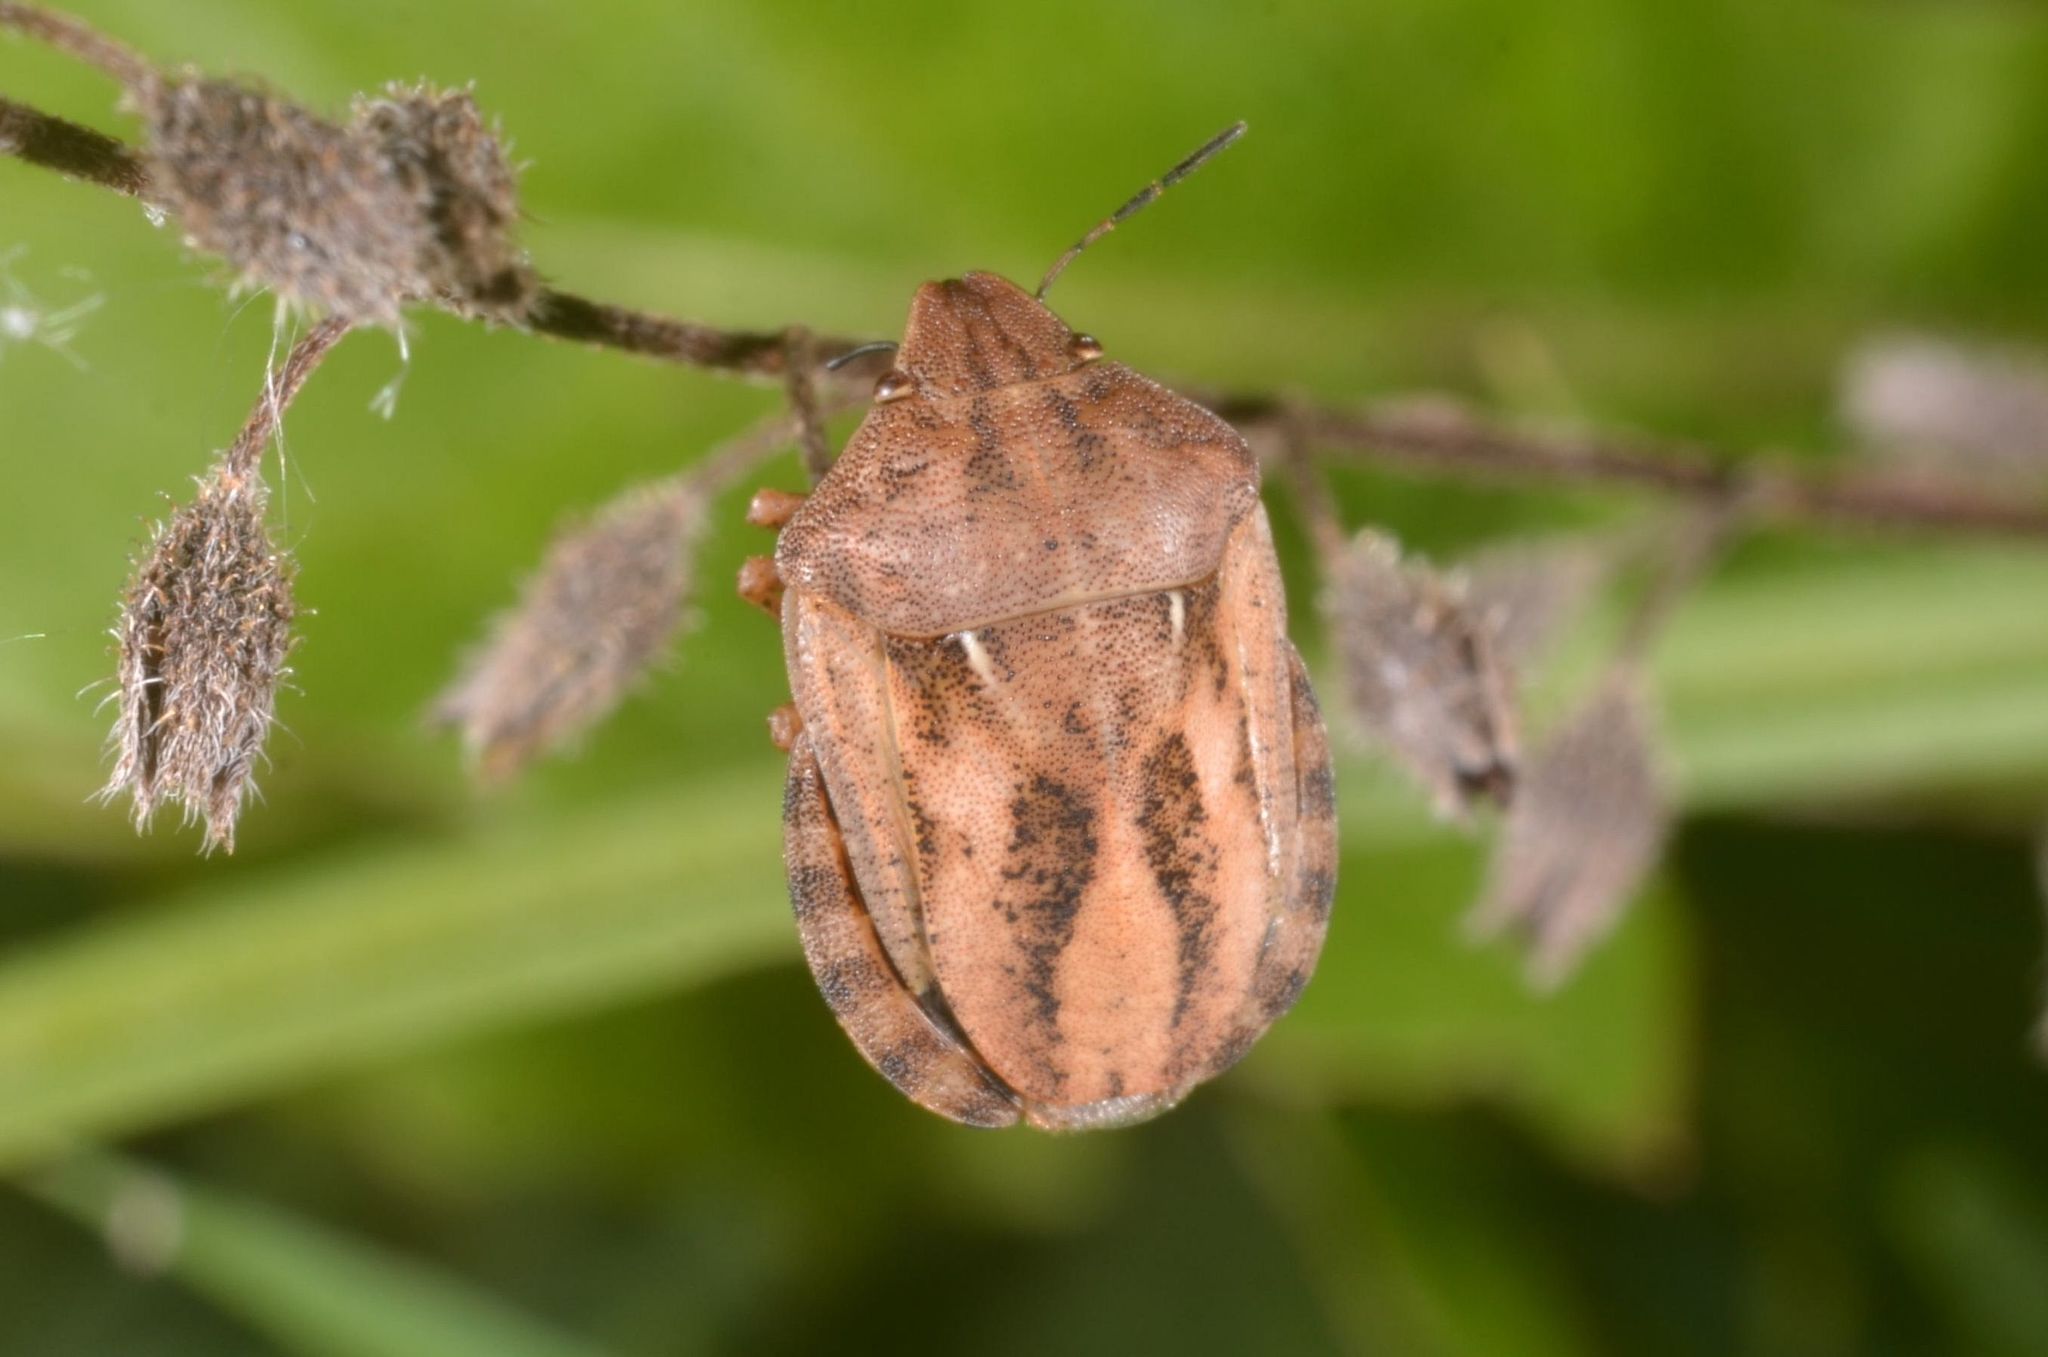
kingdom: Animalia
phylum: Arthropoda
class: Insecta
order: Hemiptera
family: Scutelleridae
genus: Eurygaster
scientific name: Eurygaster testudinaria
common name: Tortoise bug
